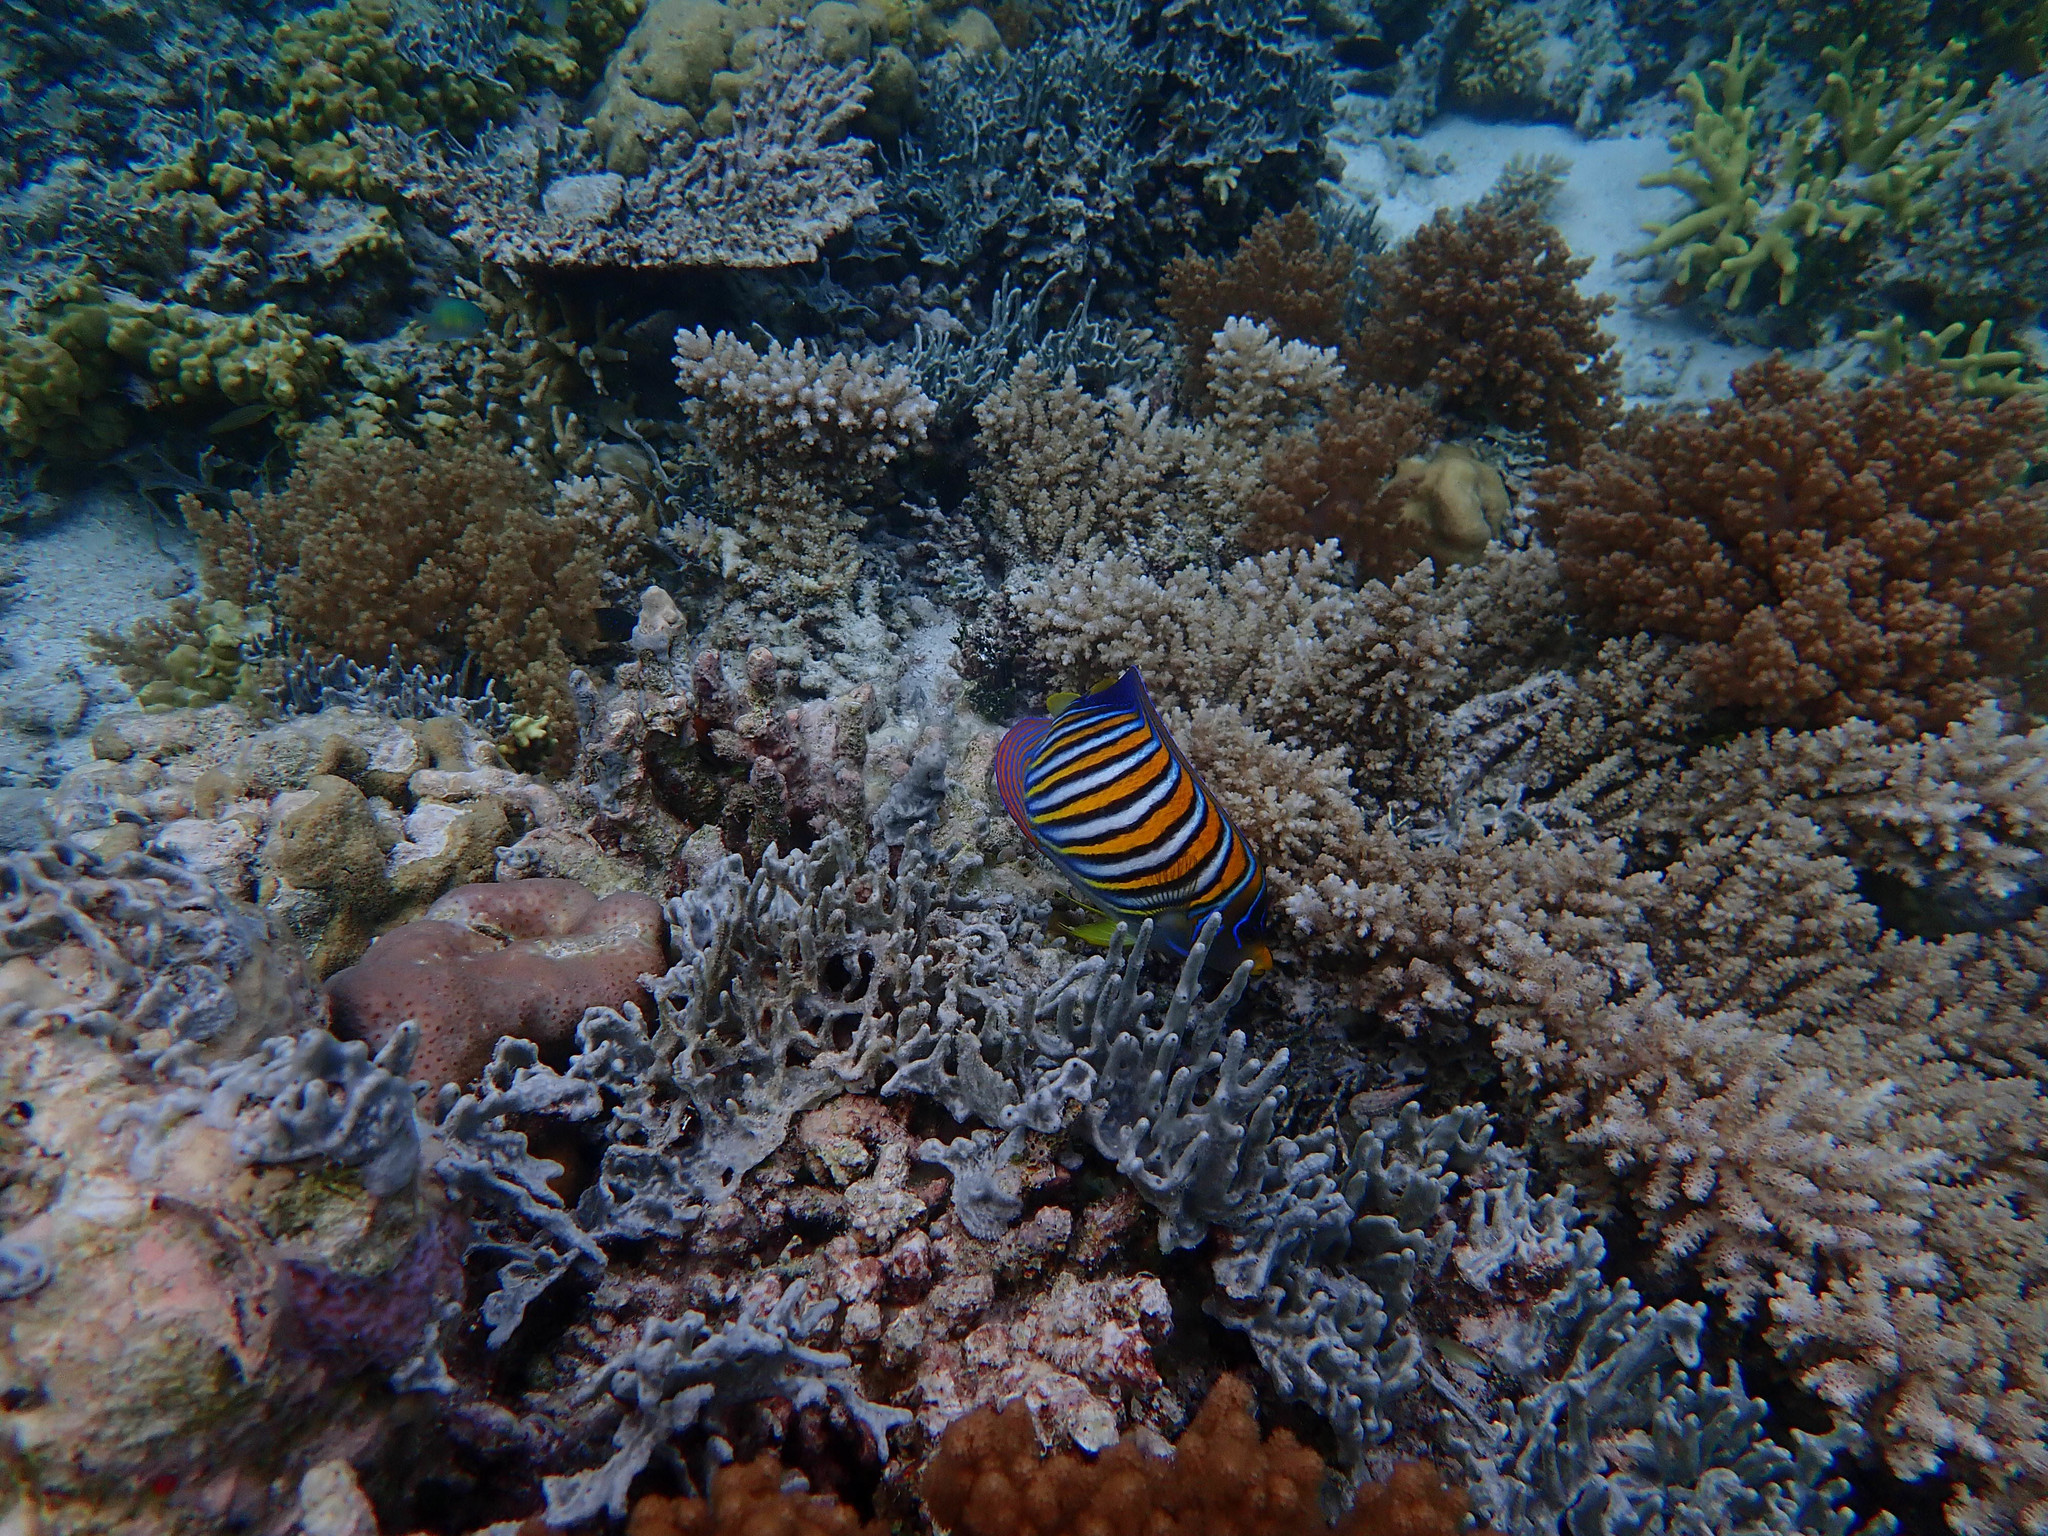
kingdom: Animalia
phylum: Chordata
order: Perciformes
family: Pomacanthidae
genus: Pygoplites
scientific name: Pygoplites diacanthus
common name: Regal angelfish
